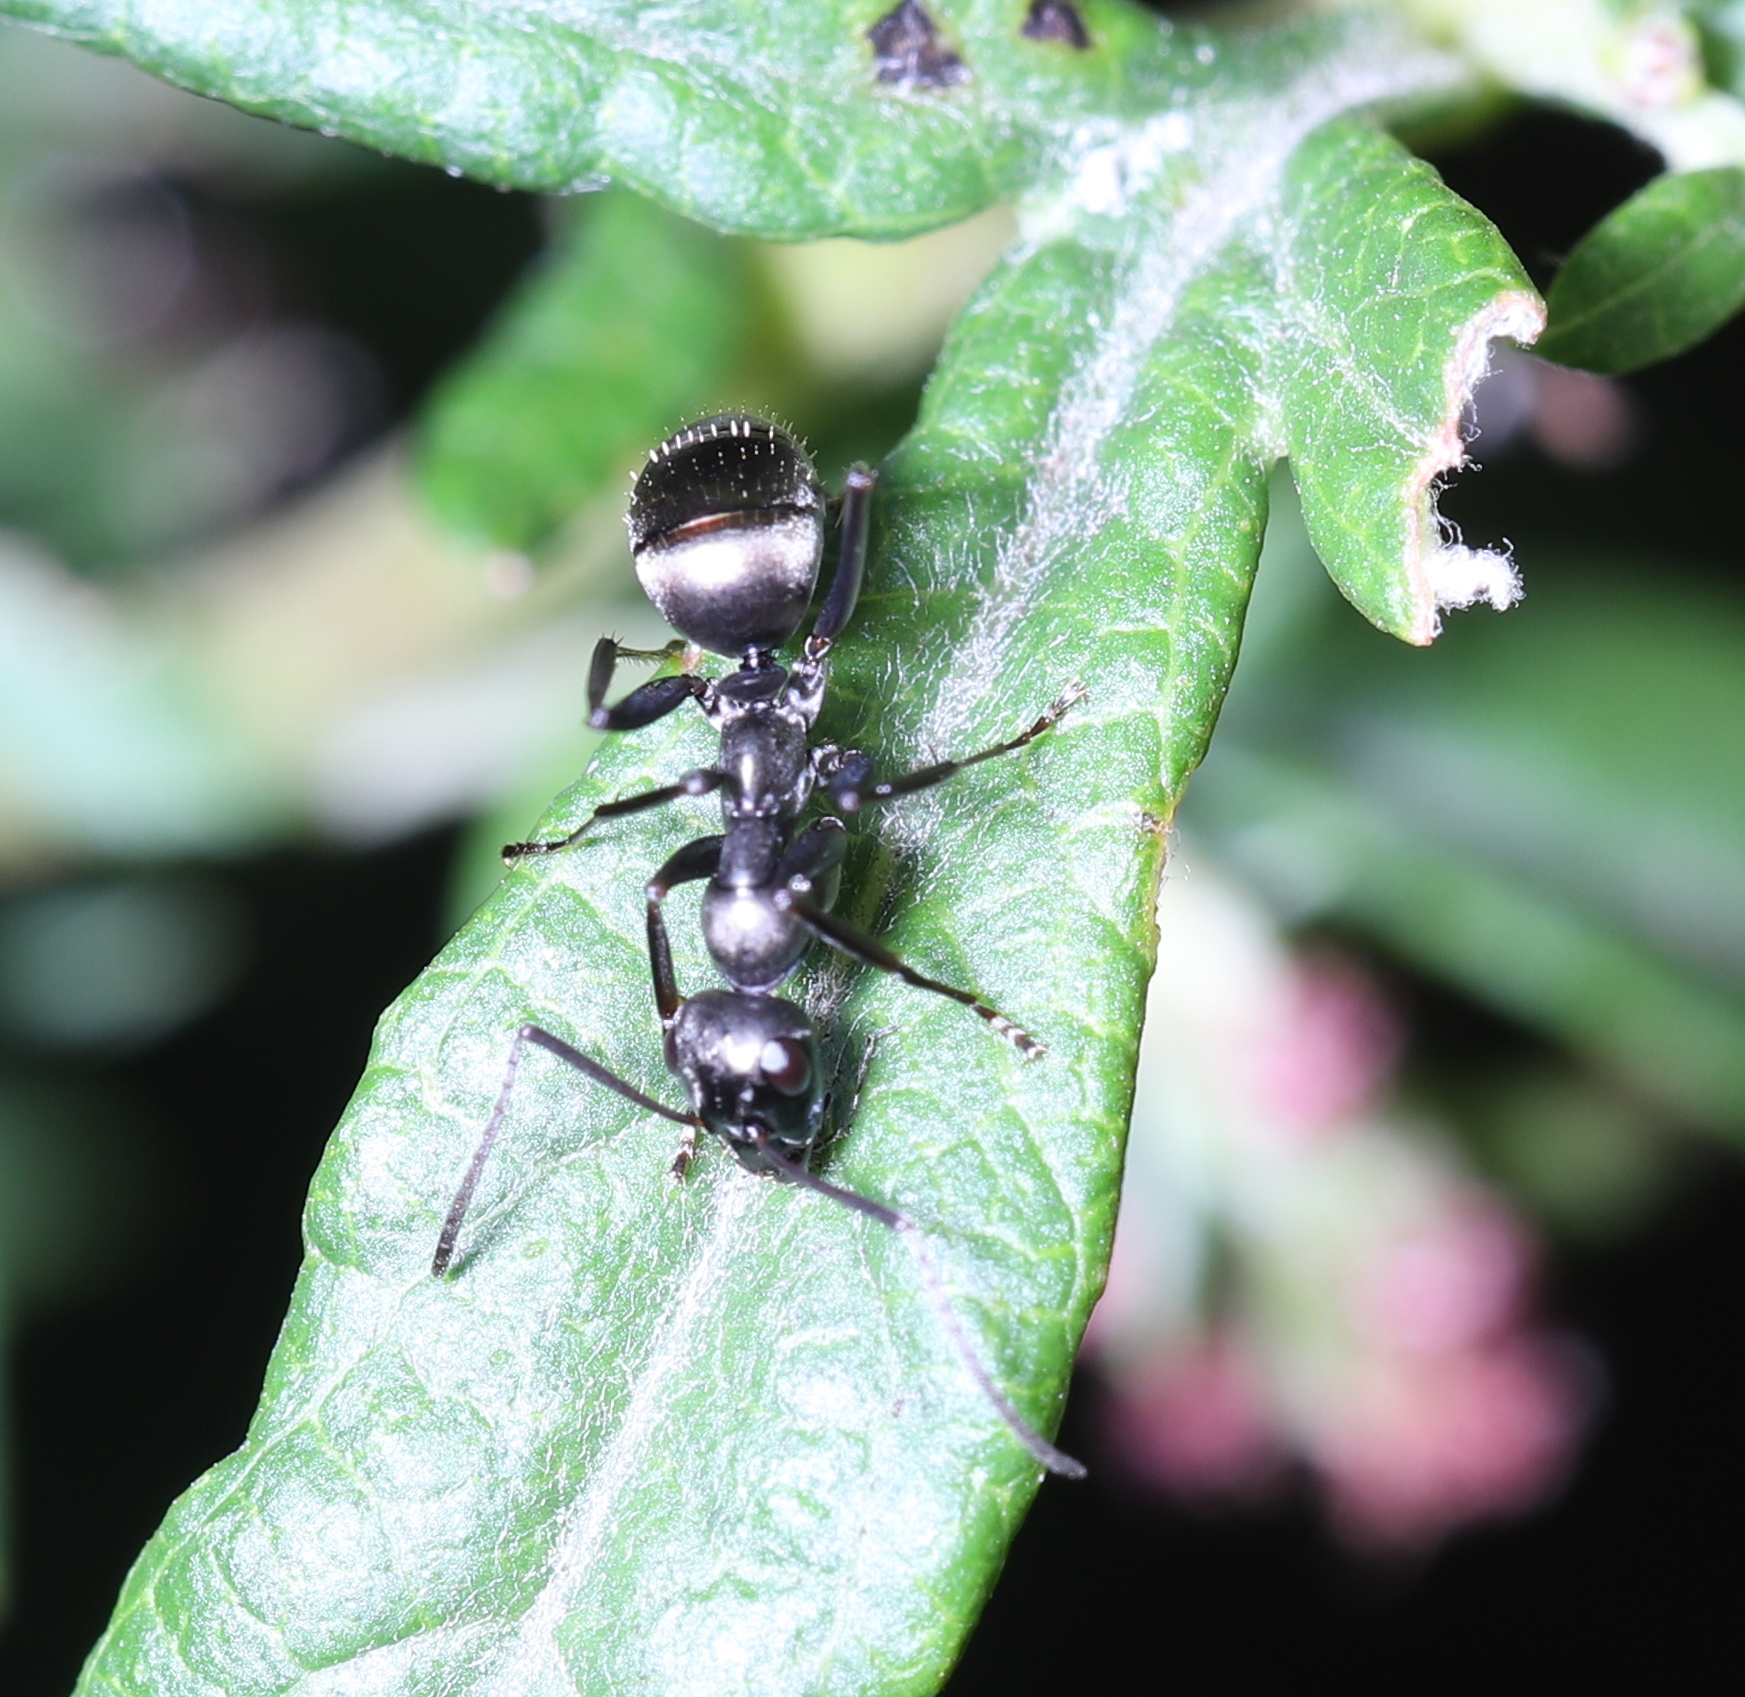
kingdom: Animalia
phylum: Arthropoda
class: Insecta
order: Hymenoptera
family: Formicidae
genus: Formica
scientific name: Formica
